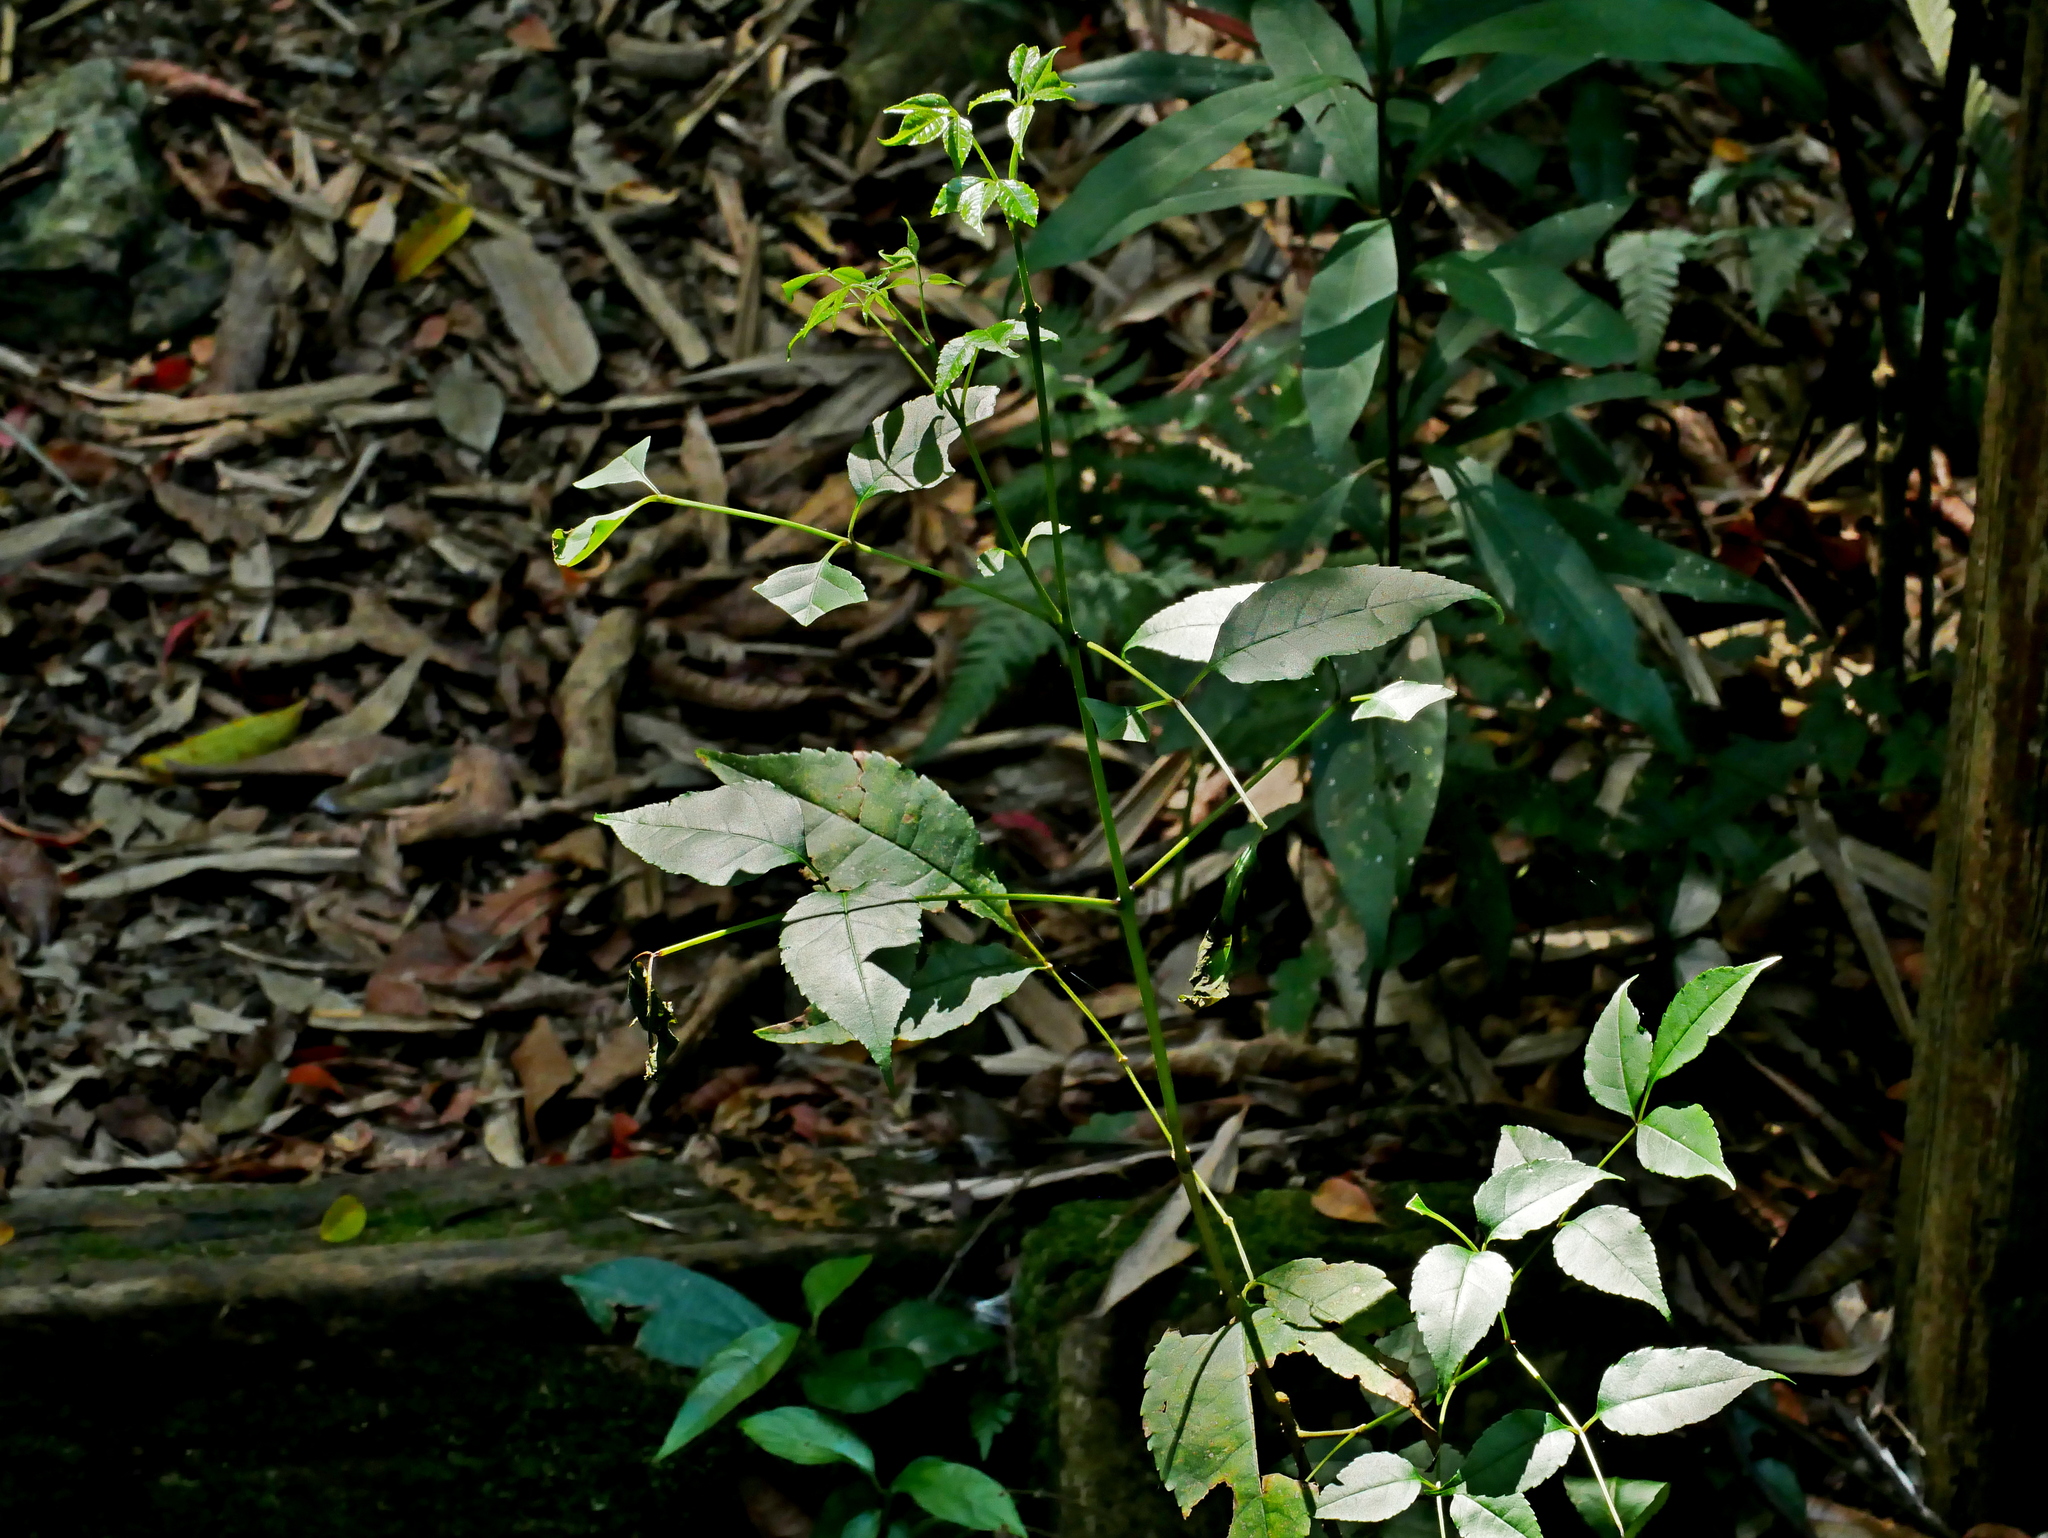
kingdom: Plantae
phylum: Tracheophyta
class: Magnoliopsida
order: Lamiales
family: Oleaceae
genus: Fraxinus
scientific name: Fraxinus insularis
